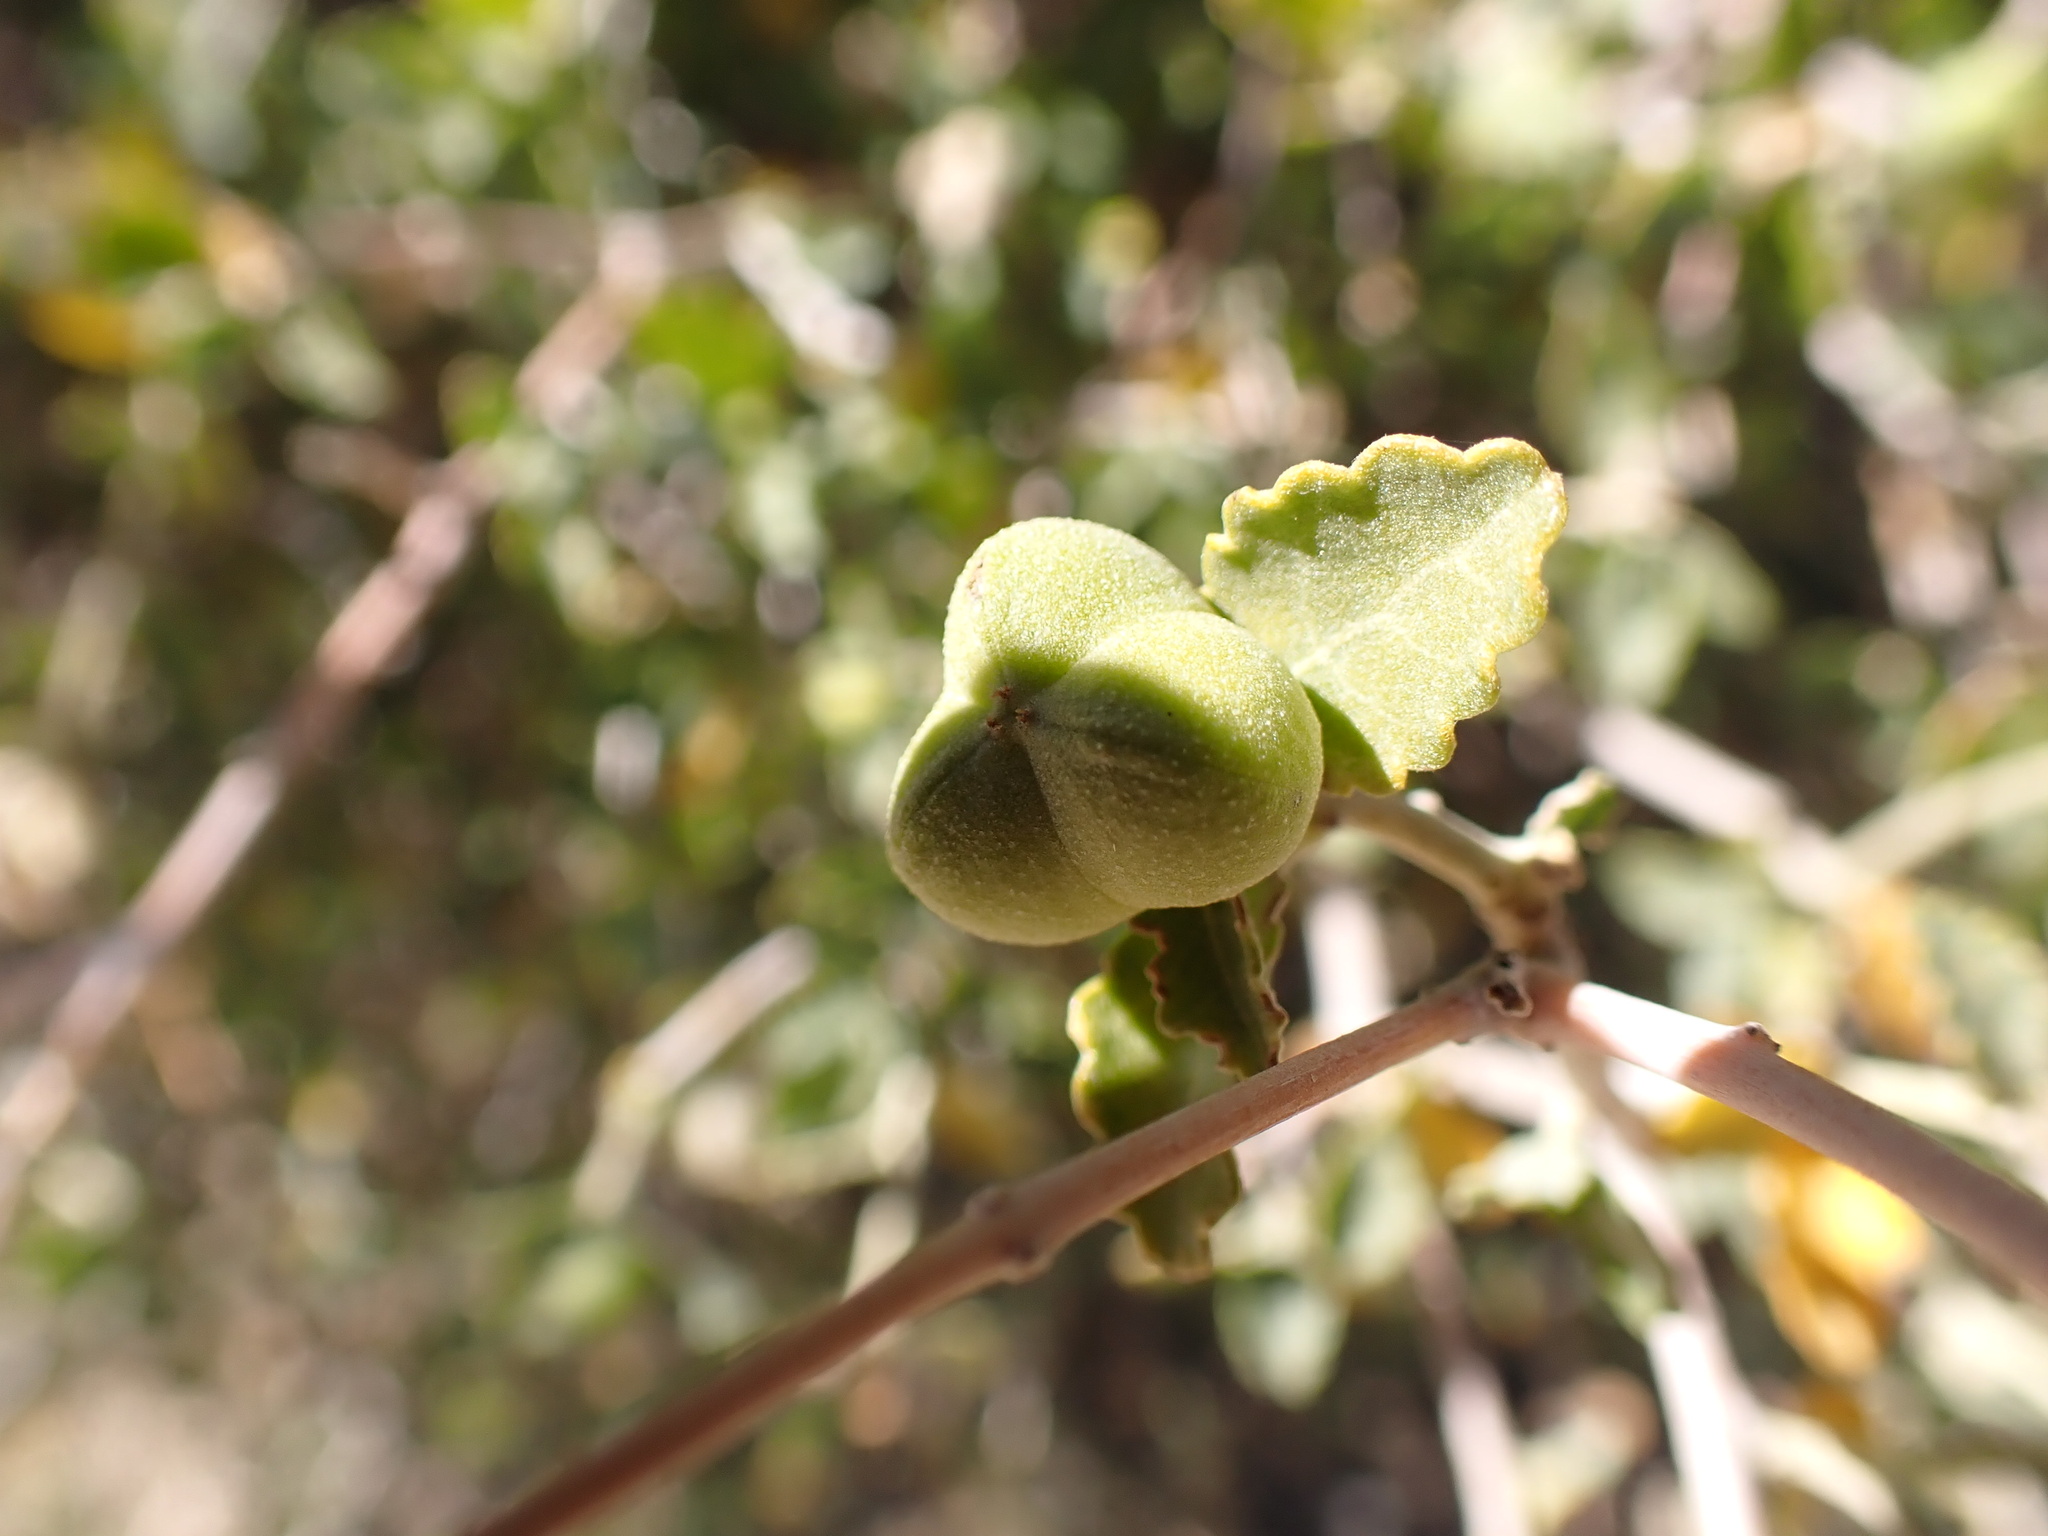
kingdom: Plantae
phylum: Tracheophyta
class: Magnoliopsida
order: Malpighiales
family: Euphorbiaceae
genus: Bernardia
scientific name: Bernardia incana
